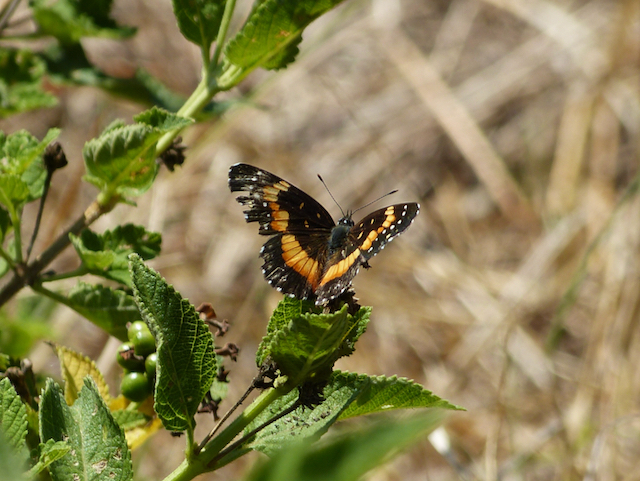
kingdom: Animalia
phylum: Arthropoda
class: Insecta
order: Lepidoptera
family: Nymphalidae
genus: Chlosyne
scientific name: Chlosyne lacinia
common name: Bordered patch
